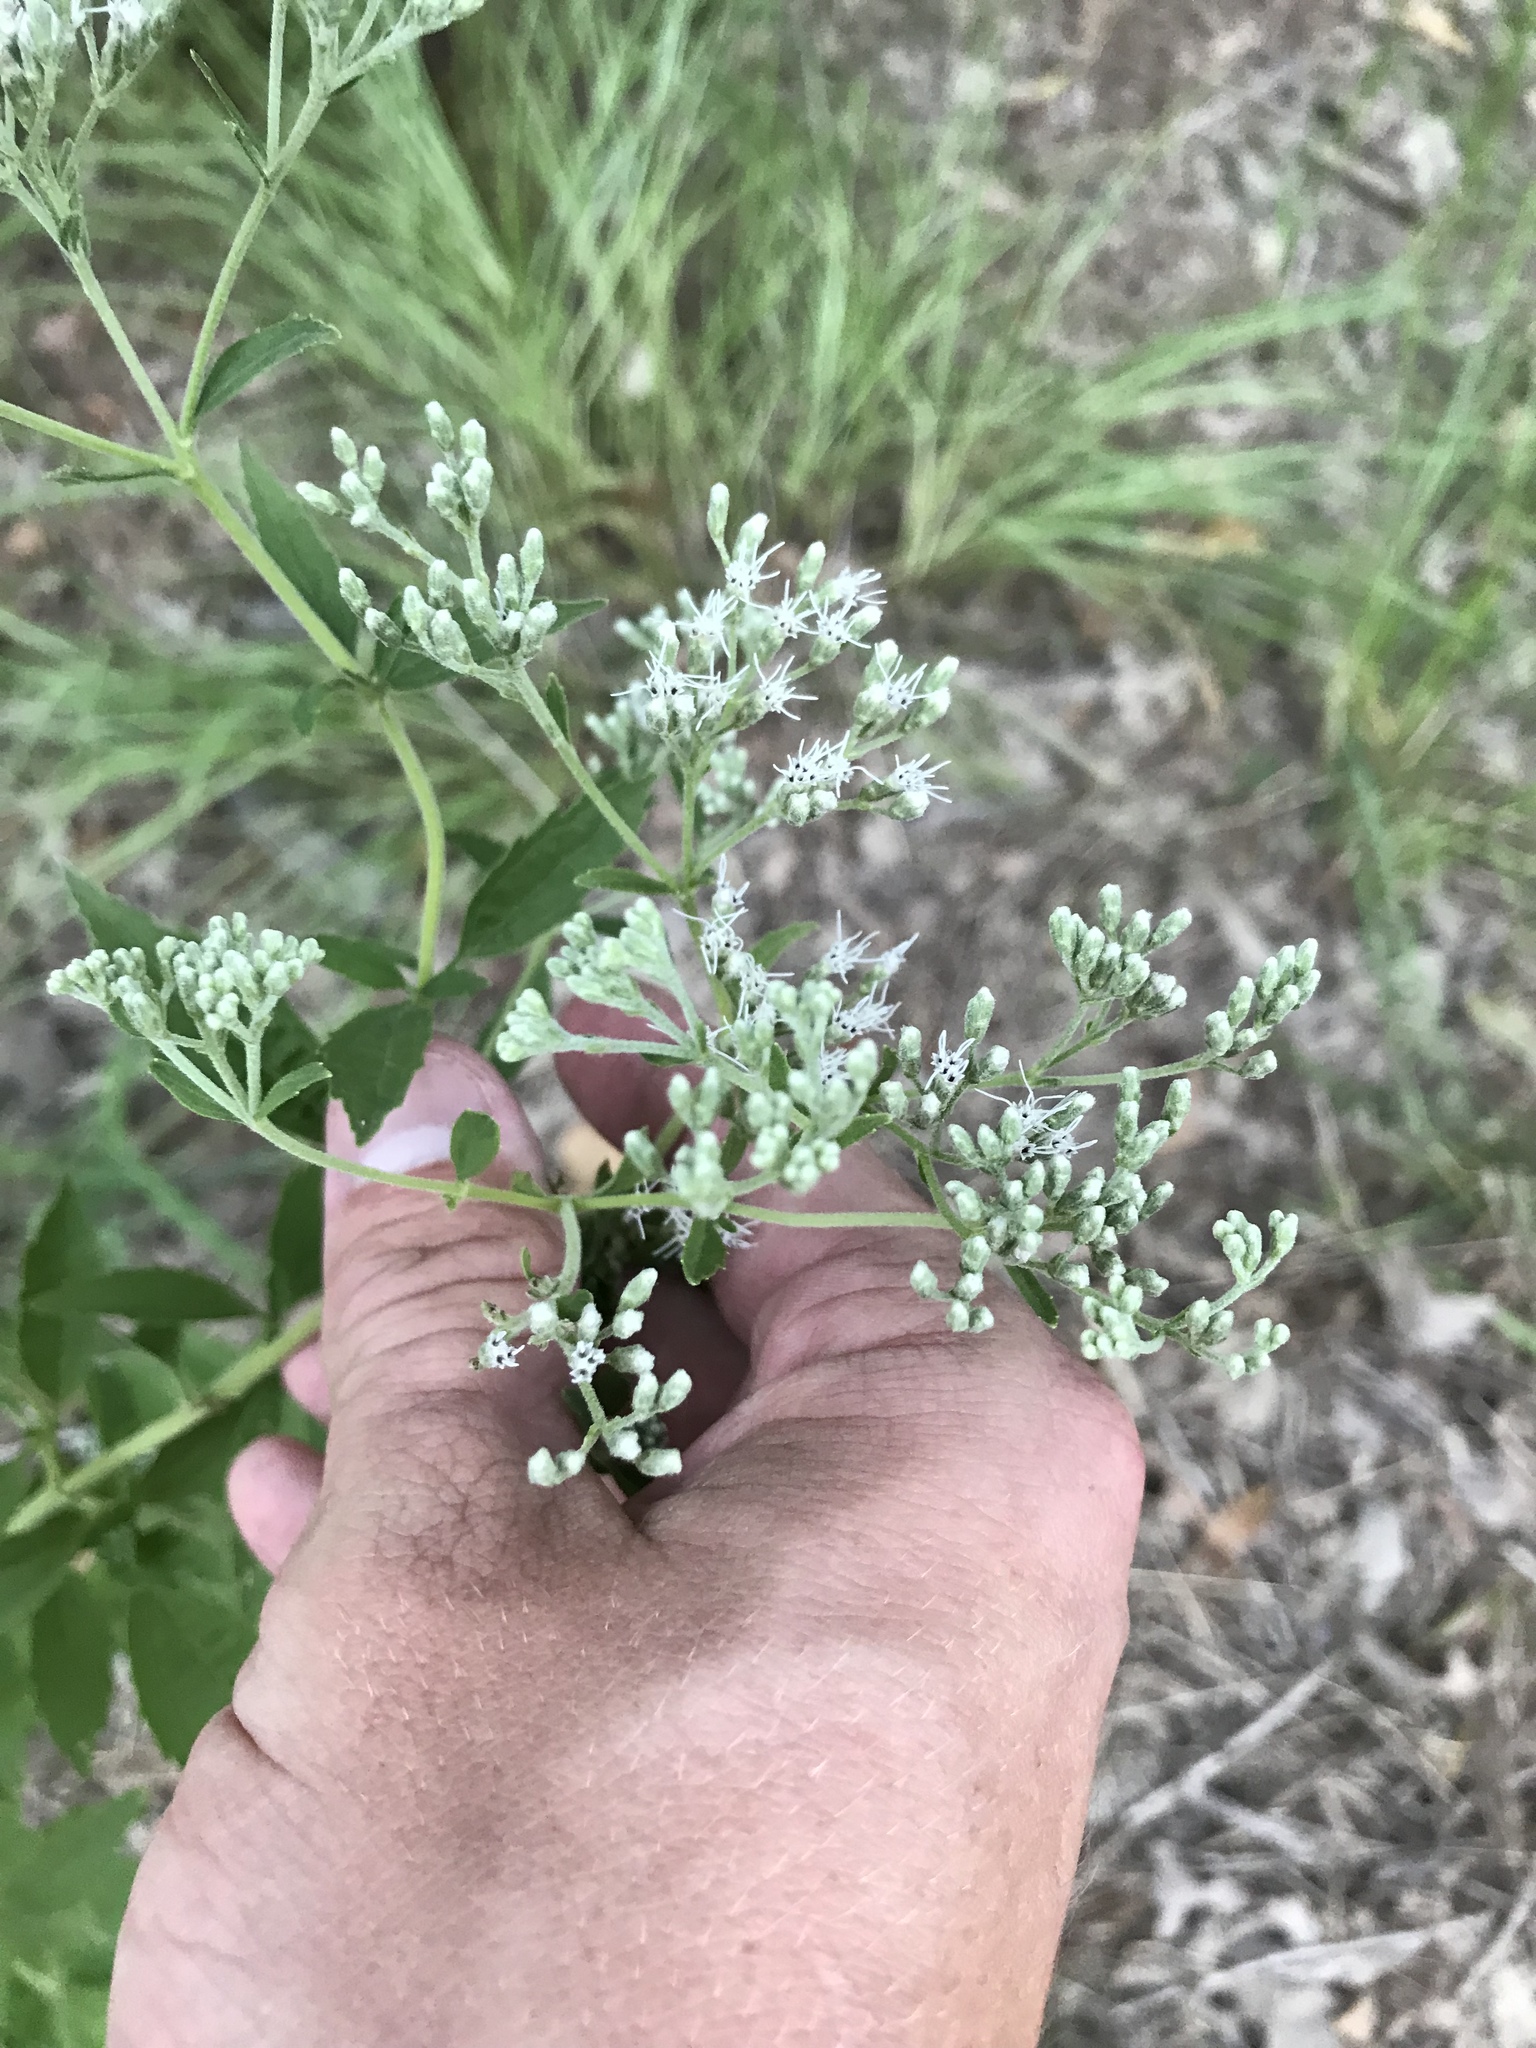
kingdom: Plantae
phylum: Tracheophyta
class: Magnoliopsida
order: Asterales
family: Asteraceae
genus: Eupatorium
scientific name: Eupatorium serotinum
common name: Late boneset
